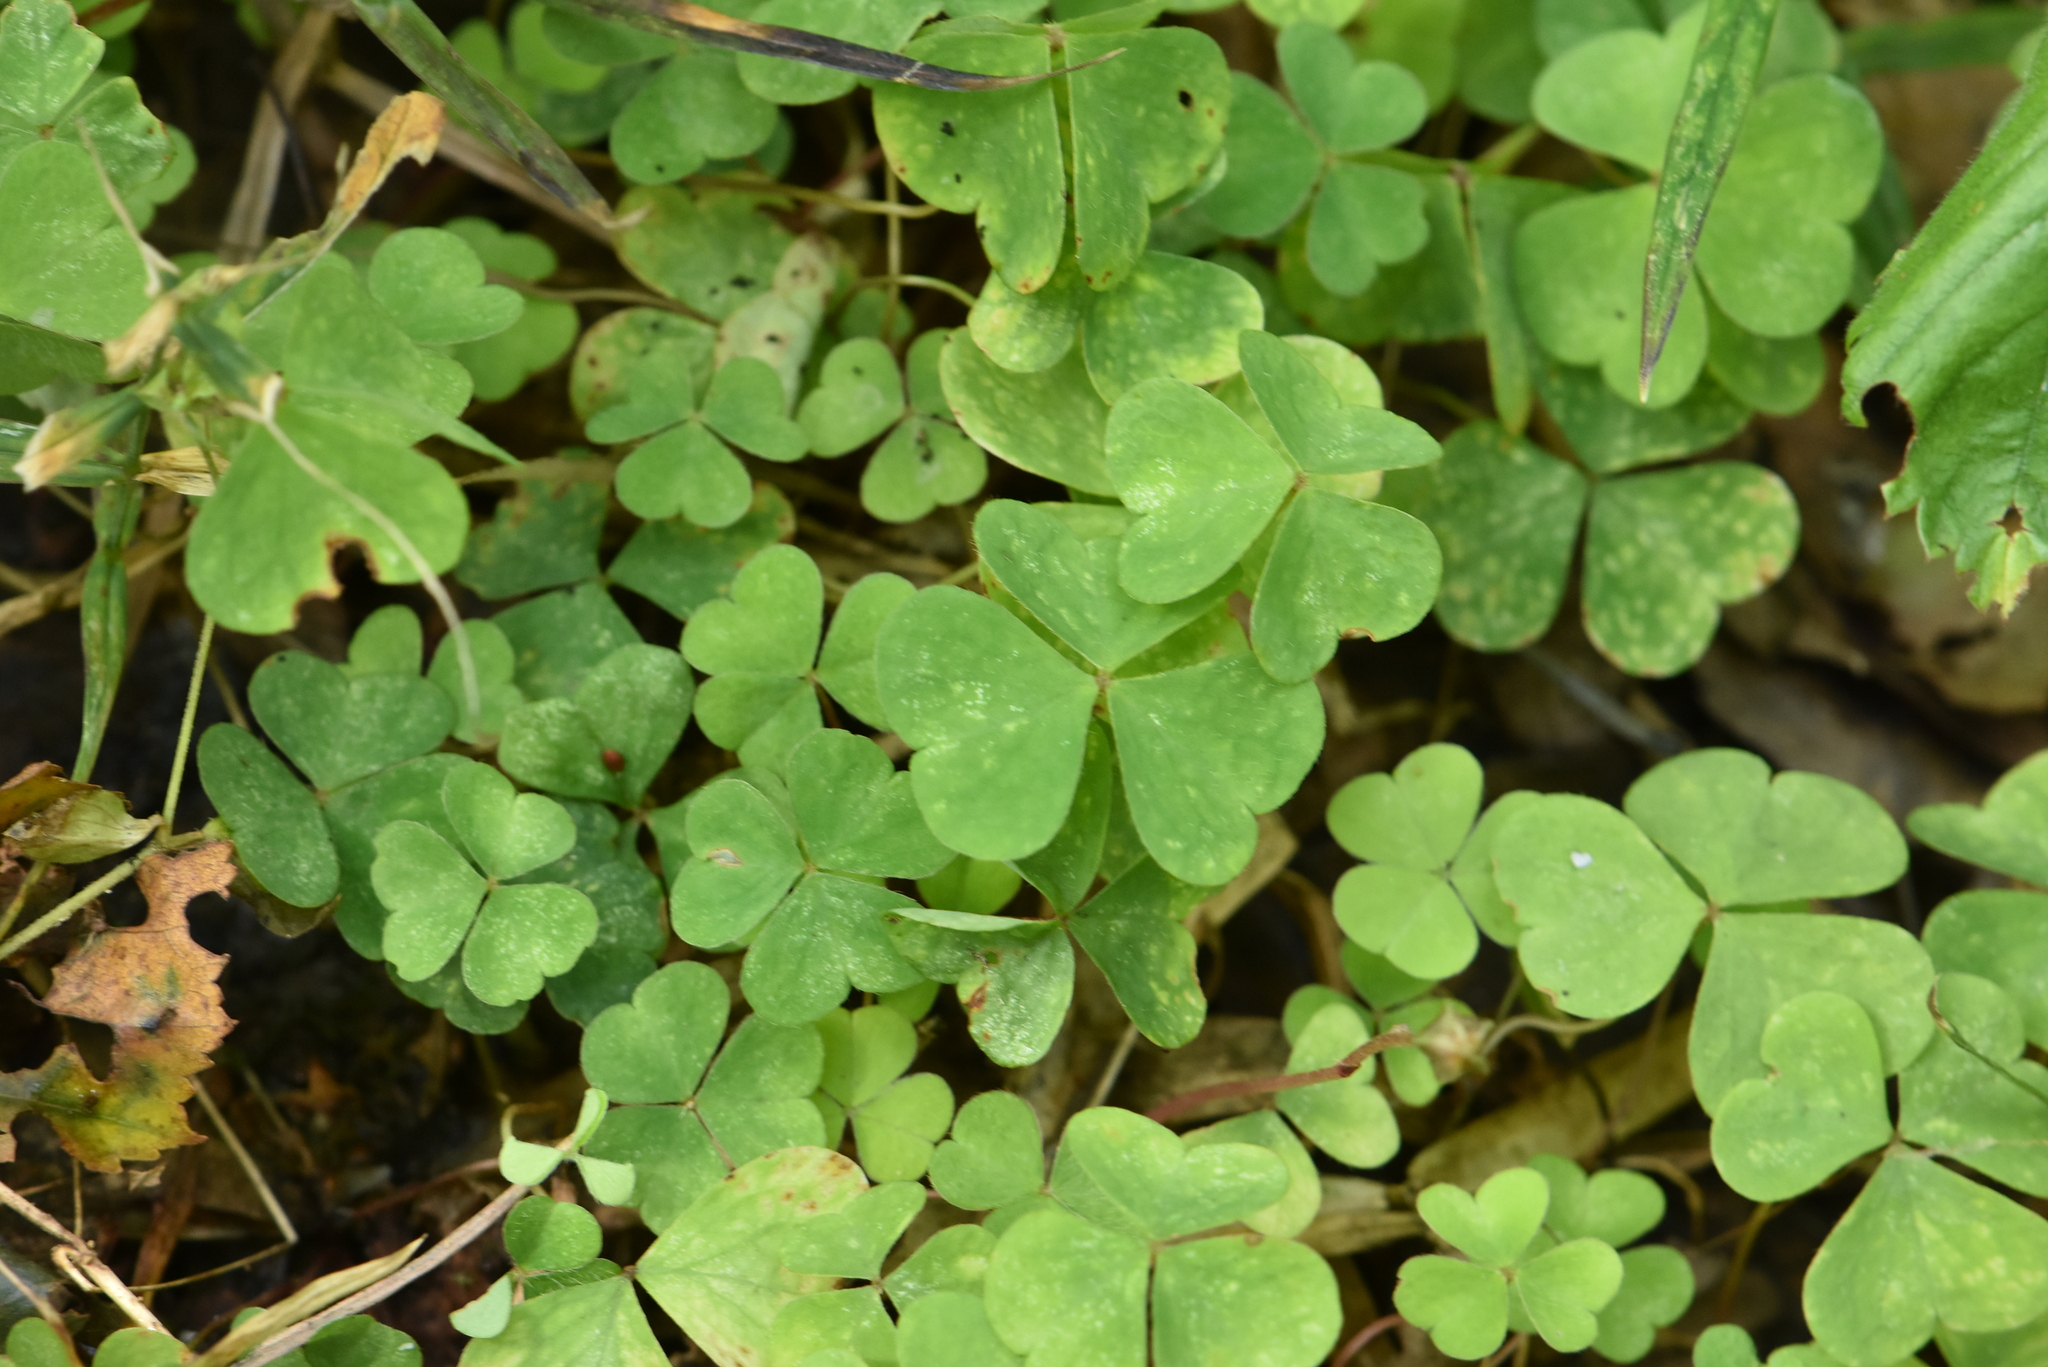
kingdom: Plantae
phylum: Tracheophyta
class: Magnoliopsida
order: Oxalidales
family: Oxalidaceae
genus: Oxalis
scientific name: Oxalis acetosella
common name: Wood-sorrel
